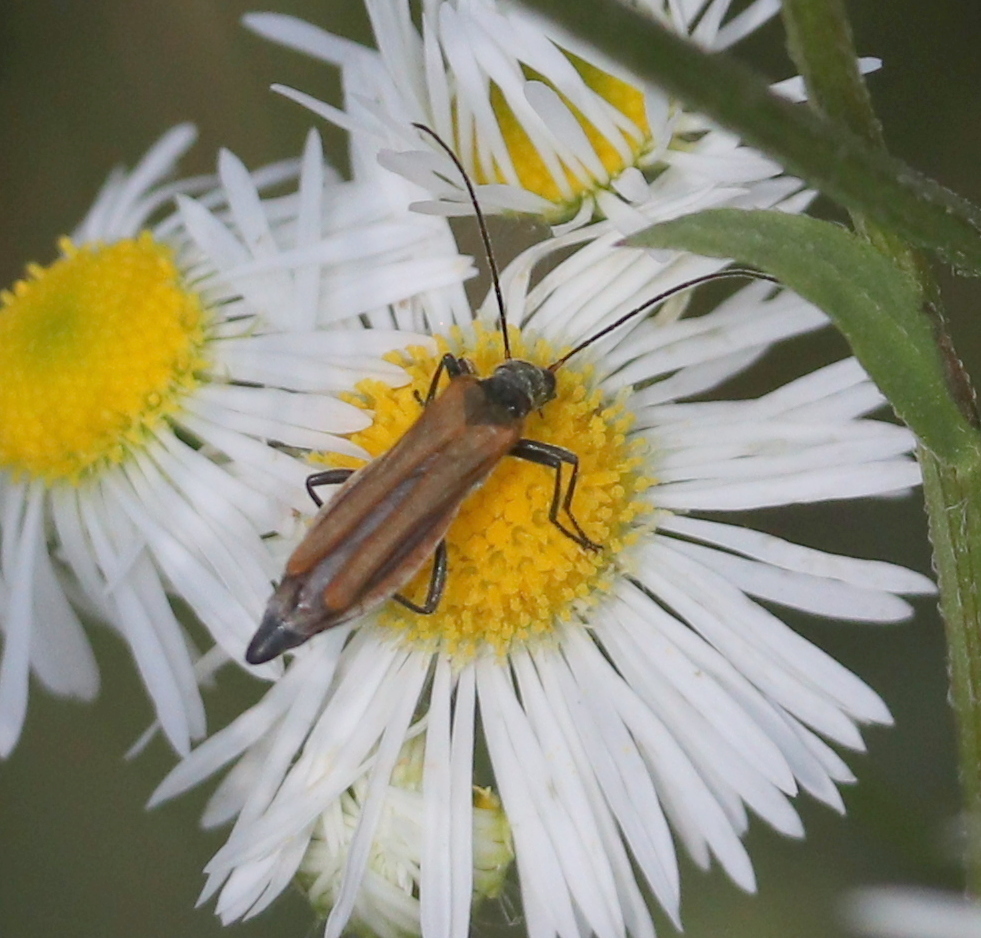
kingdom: Animalia
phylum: Arthropoda
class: Insecta
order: Coleoptera
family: Oedemeridae
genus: Oedemera
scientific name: Oedemera femorata
